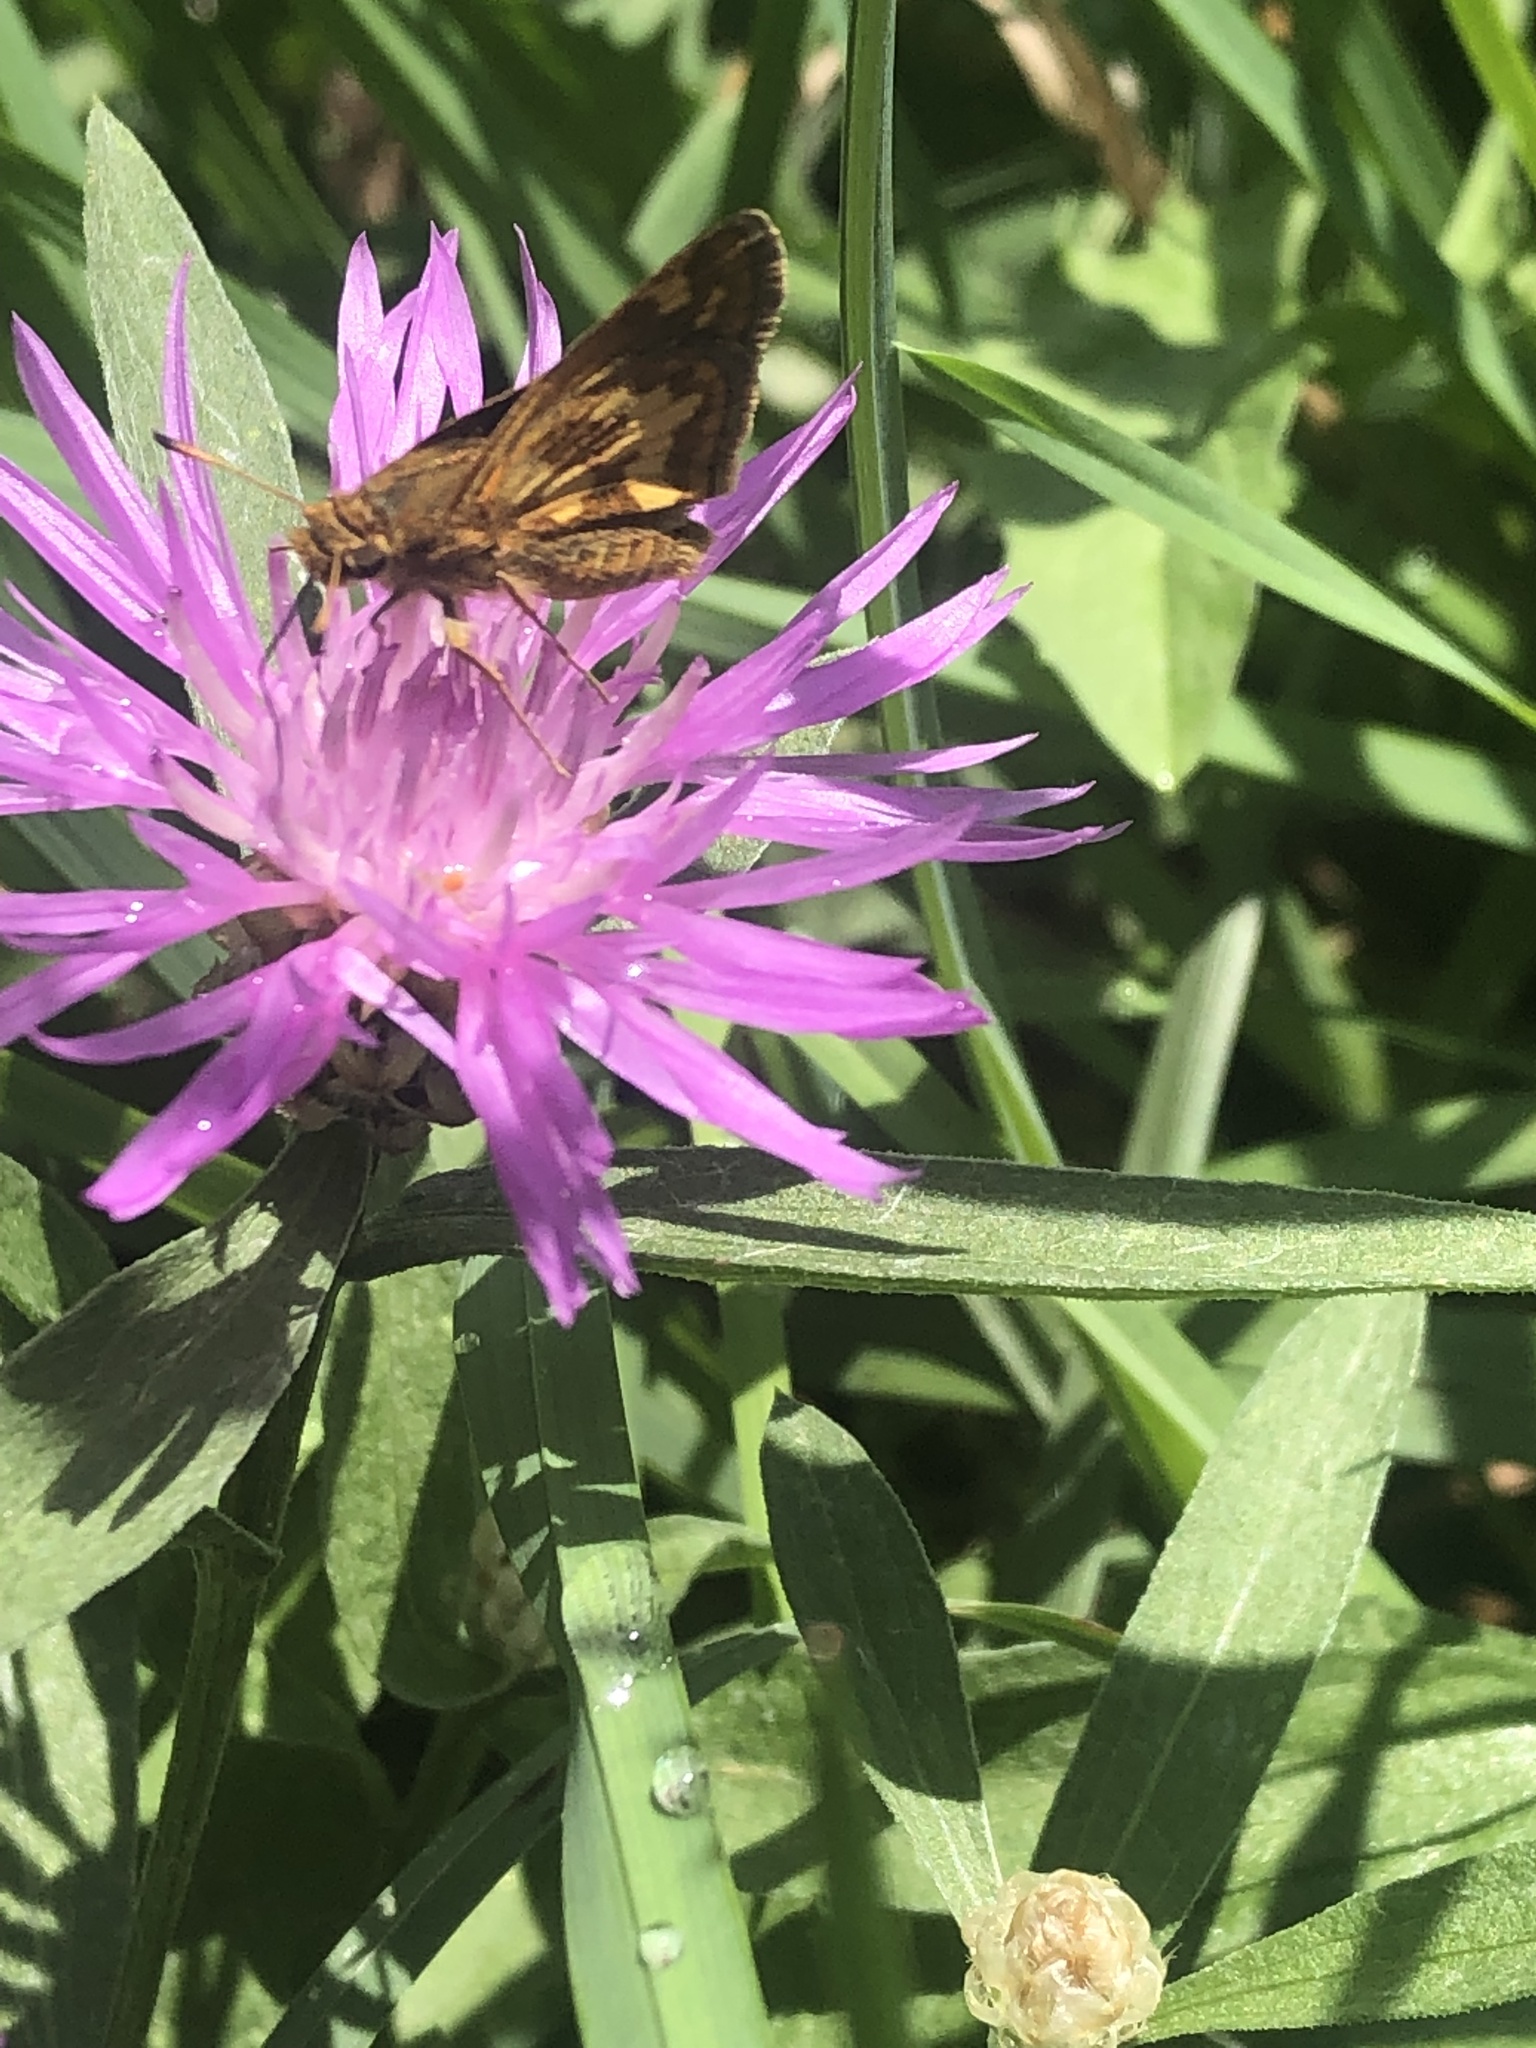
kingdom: Animalia
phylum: Arthropoda
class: Insecta
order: Lepidoptera
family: Hesperiidae
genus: Polites
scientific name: Polites coras
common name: Peck's skipper
